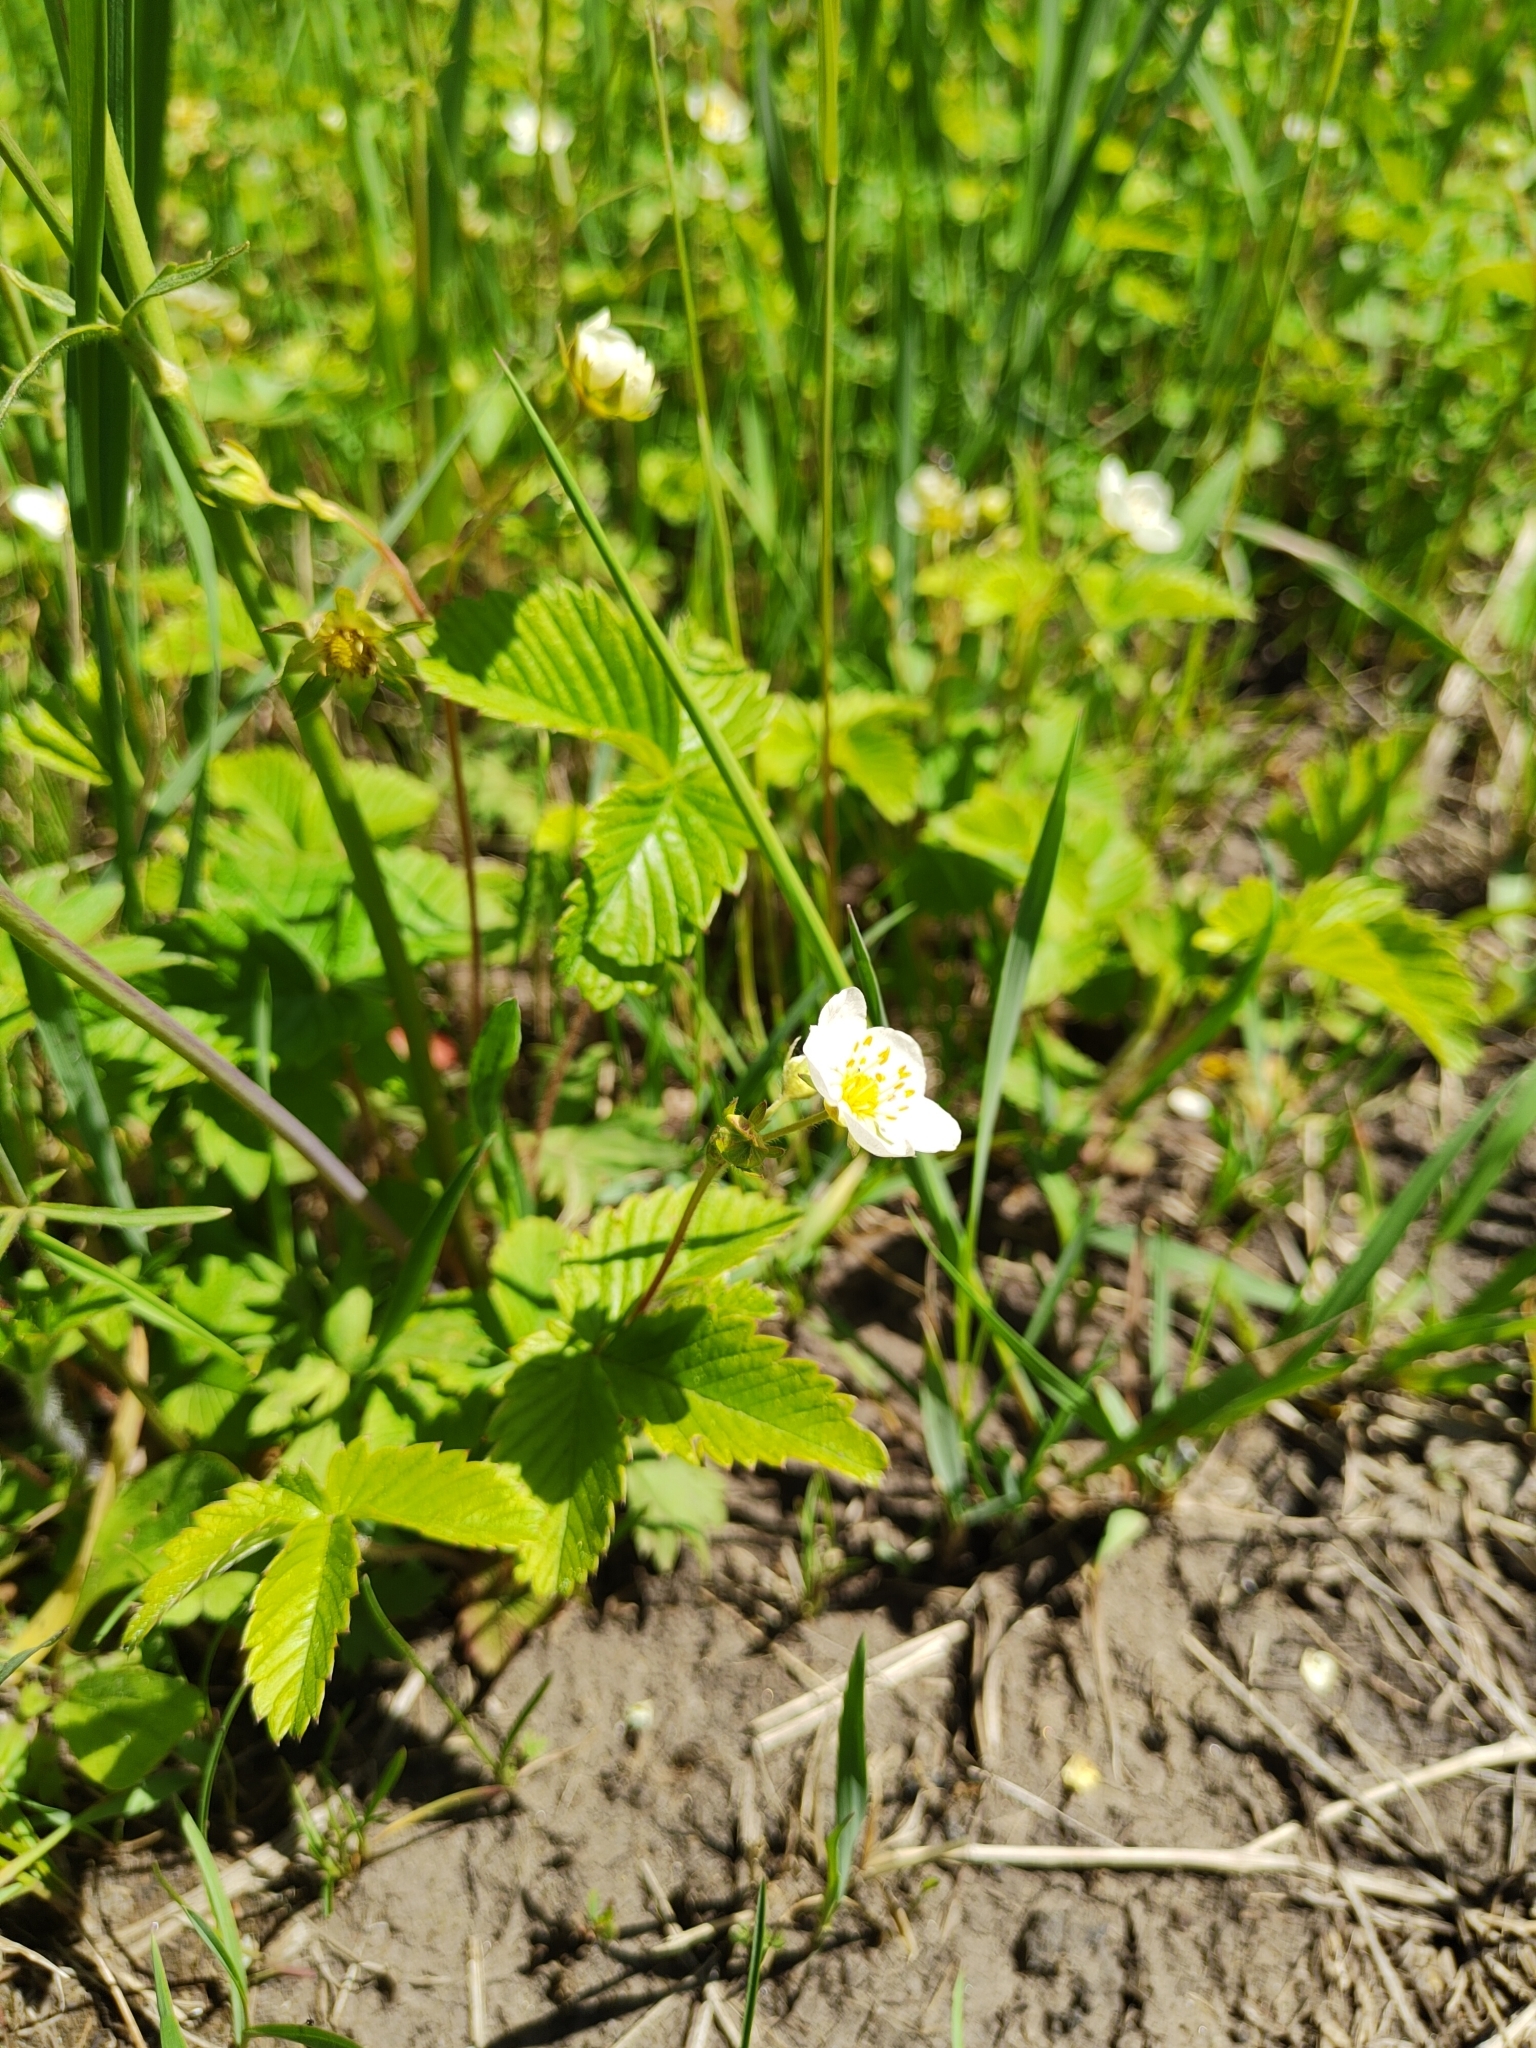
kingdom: Plantae
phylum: Tracheophyta
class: Magnoliopsida
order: Rosales
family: Rosaceae
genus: Fragaria
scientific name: Fragaria viridis
